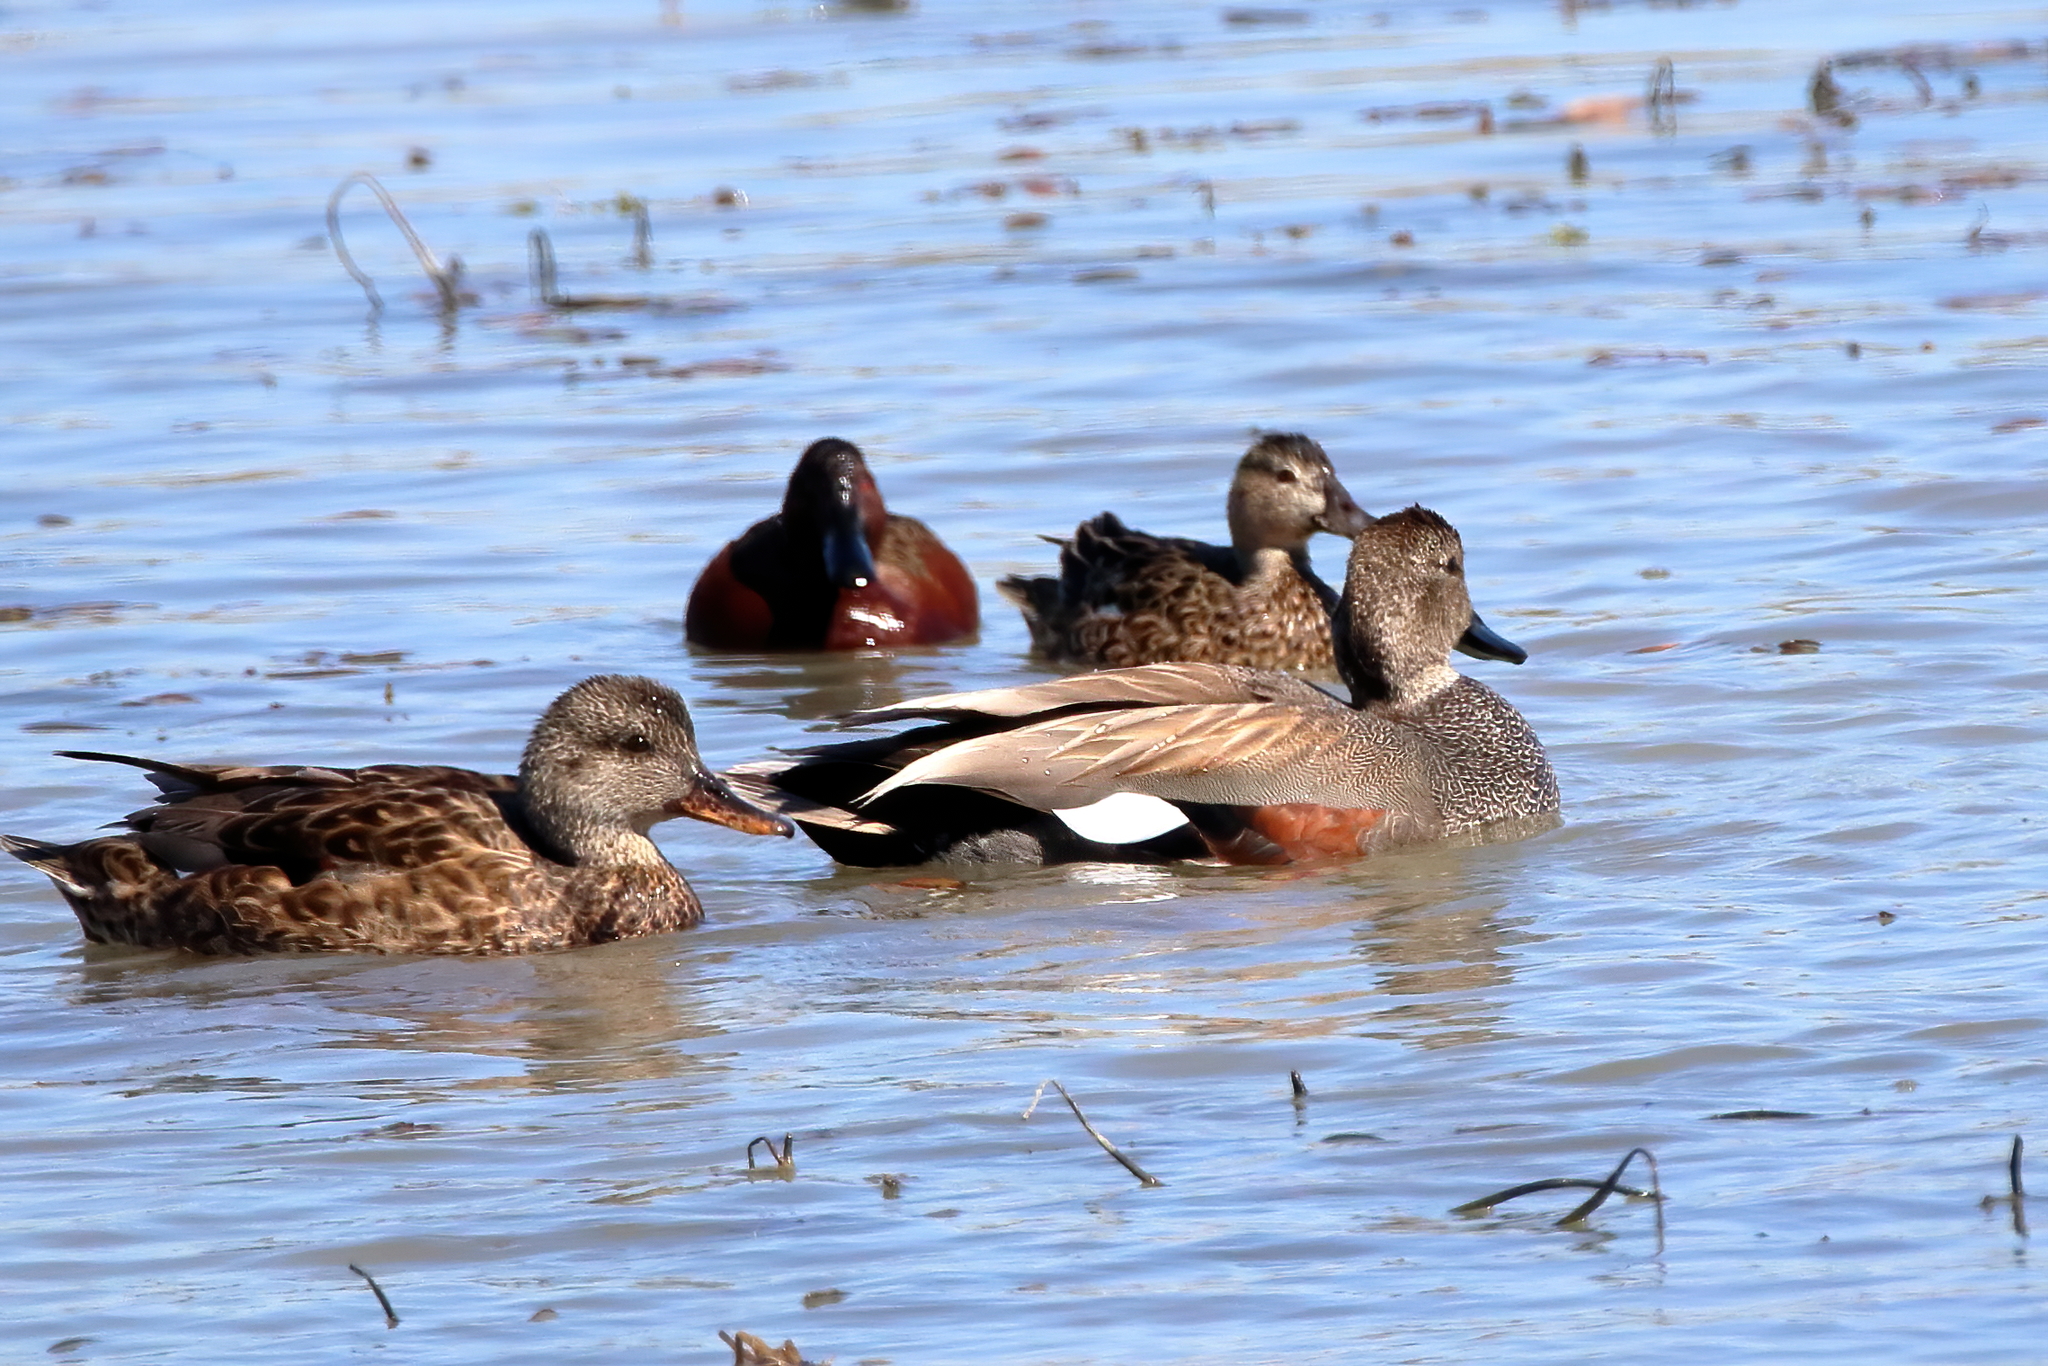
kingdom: Animalia
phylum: Chordata
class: Aves
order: Anseriformes
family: Anatidae
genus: Mareca
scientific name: Mareca strepera
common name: Gadwall
